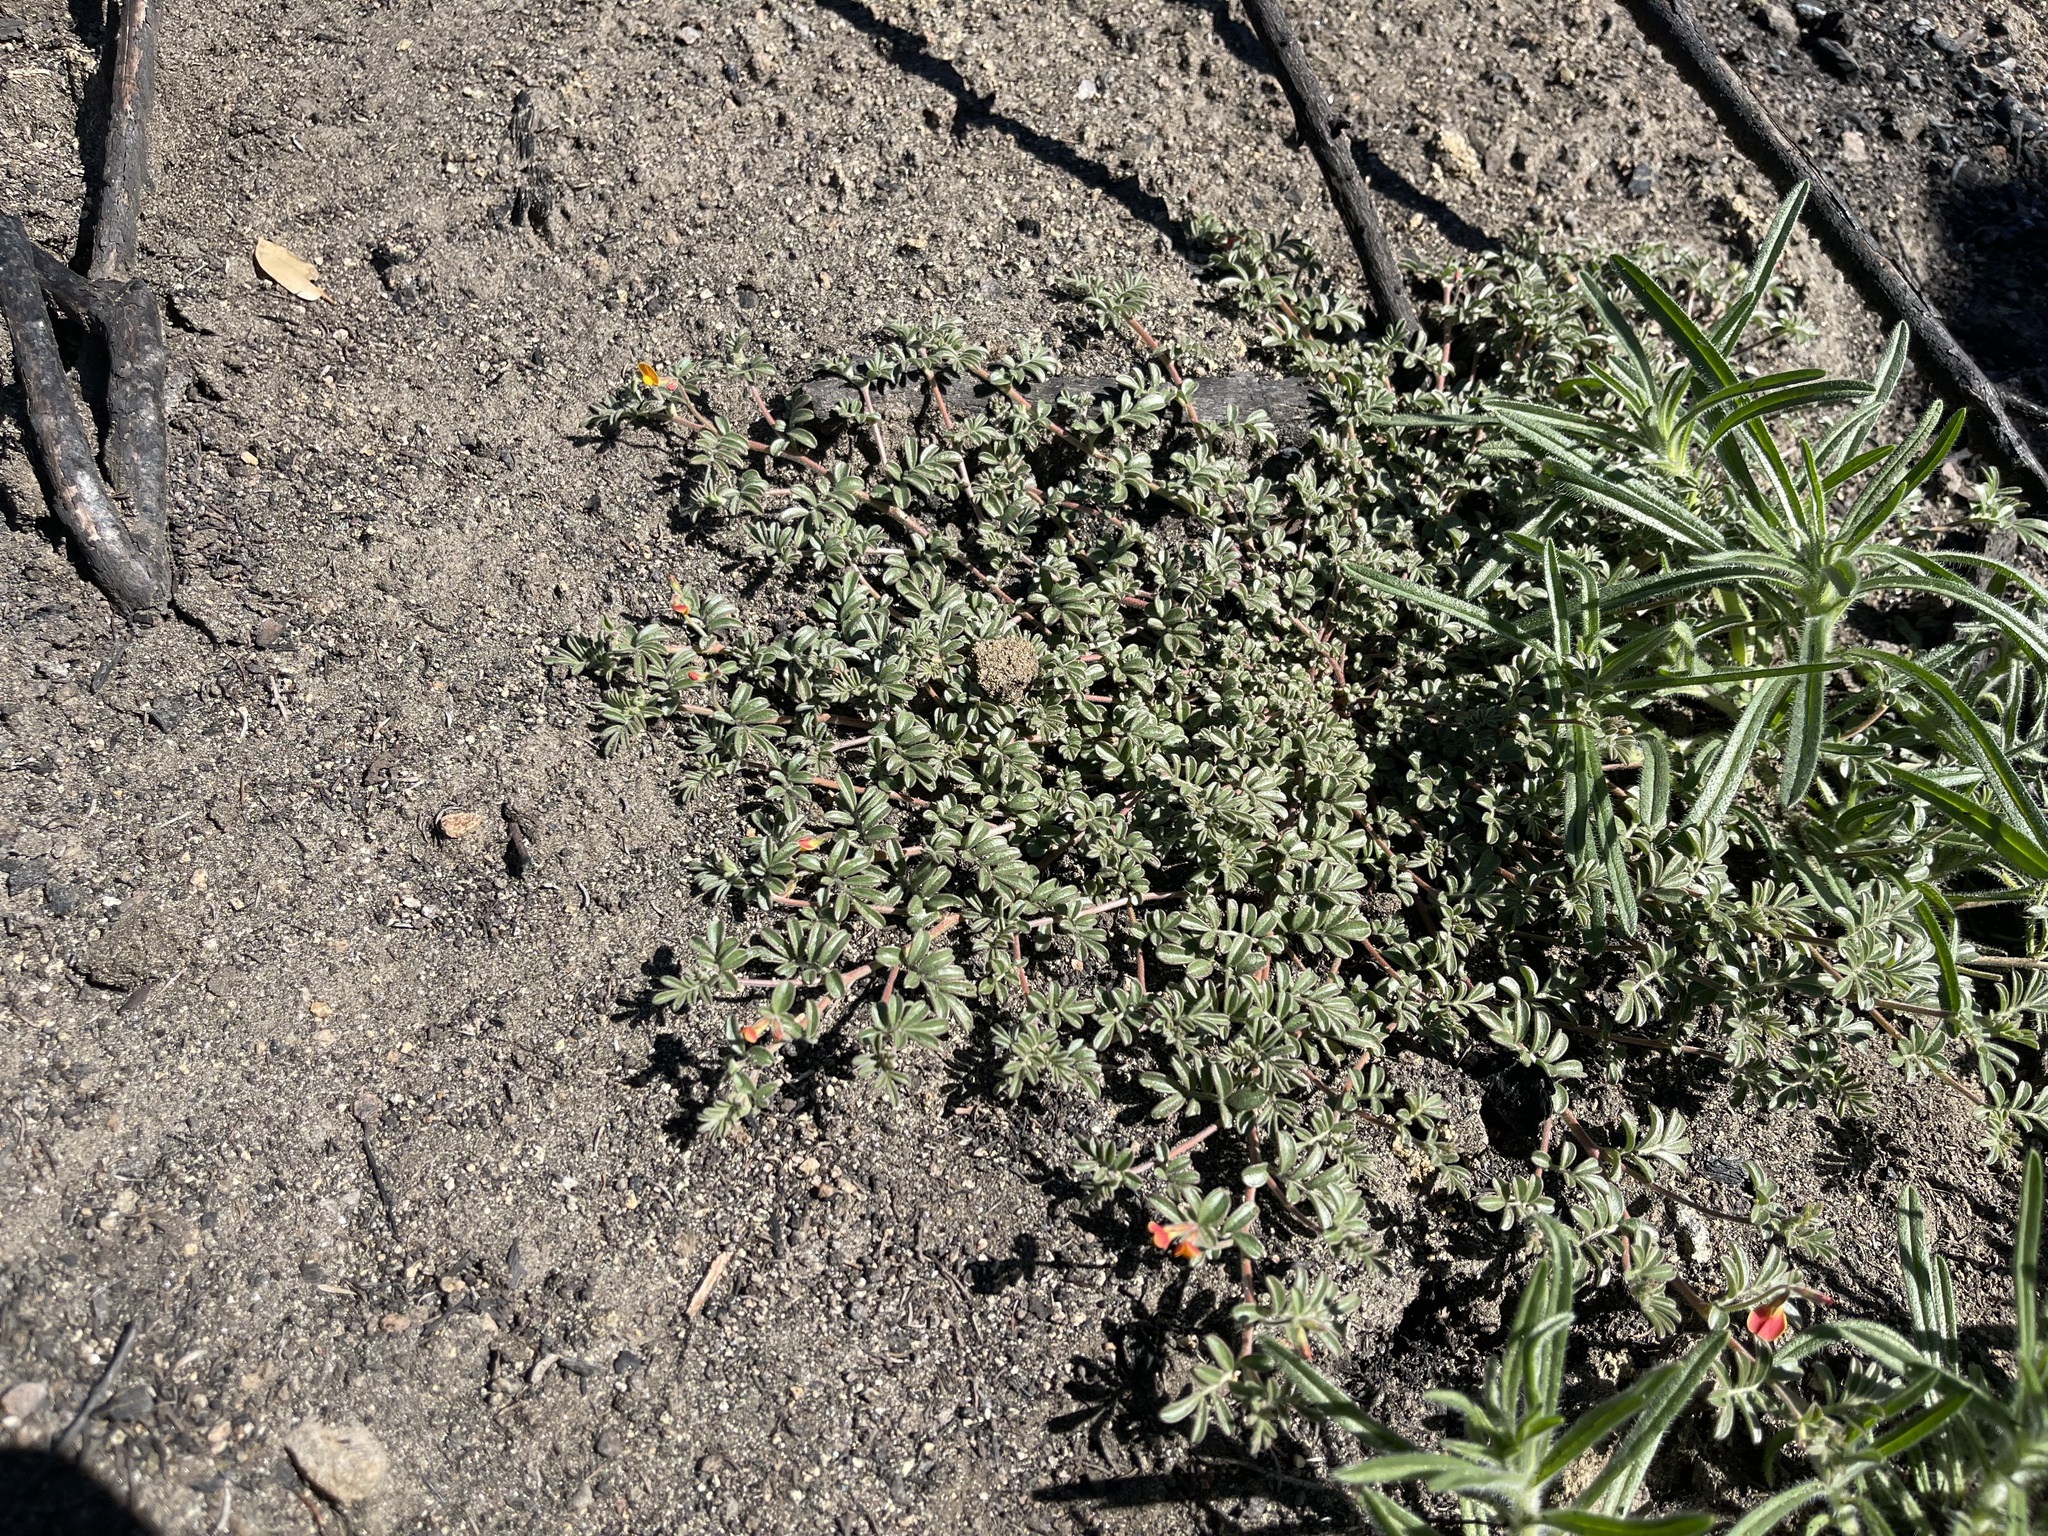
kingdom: Plantae
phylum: Tracheophyta
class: Magnoliopsida
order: Fabales
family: Fabaceae
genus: Acmispon
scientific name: Acmispon strigosus
